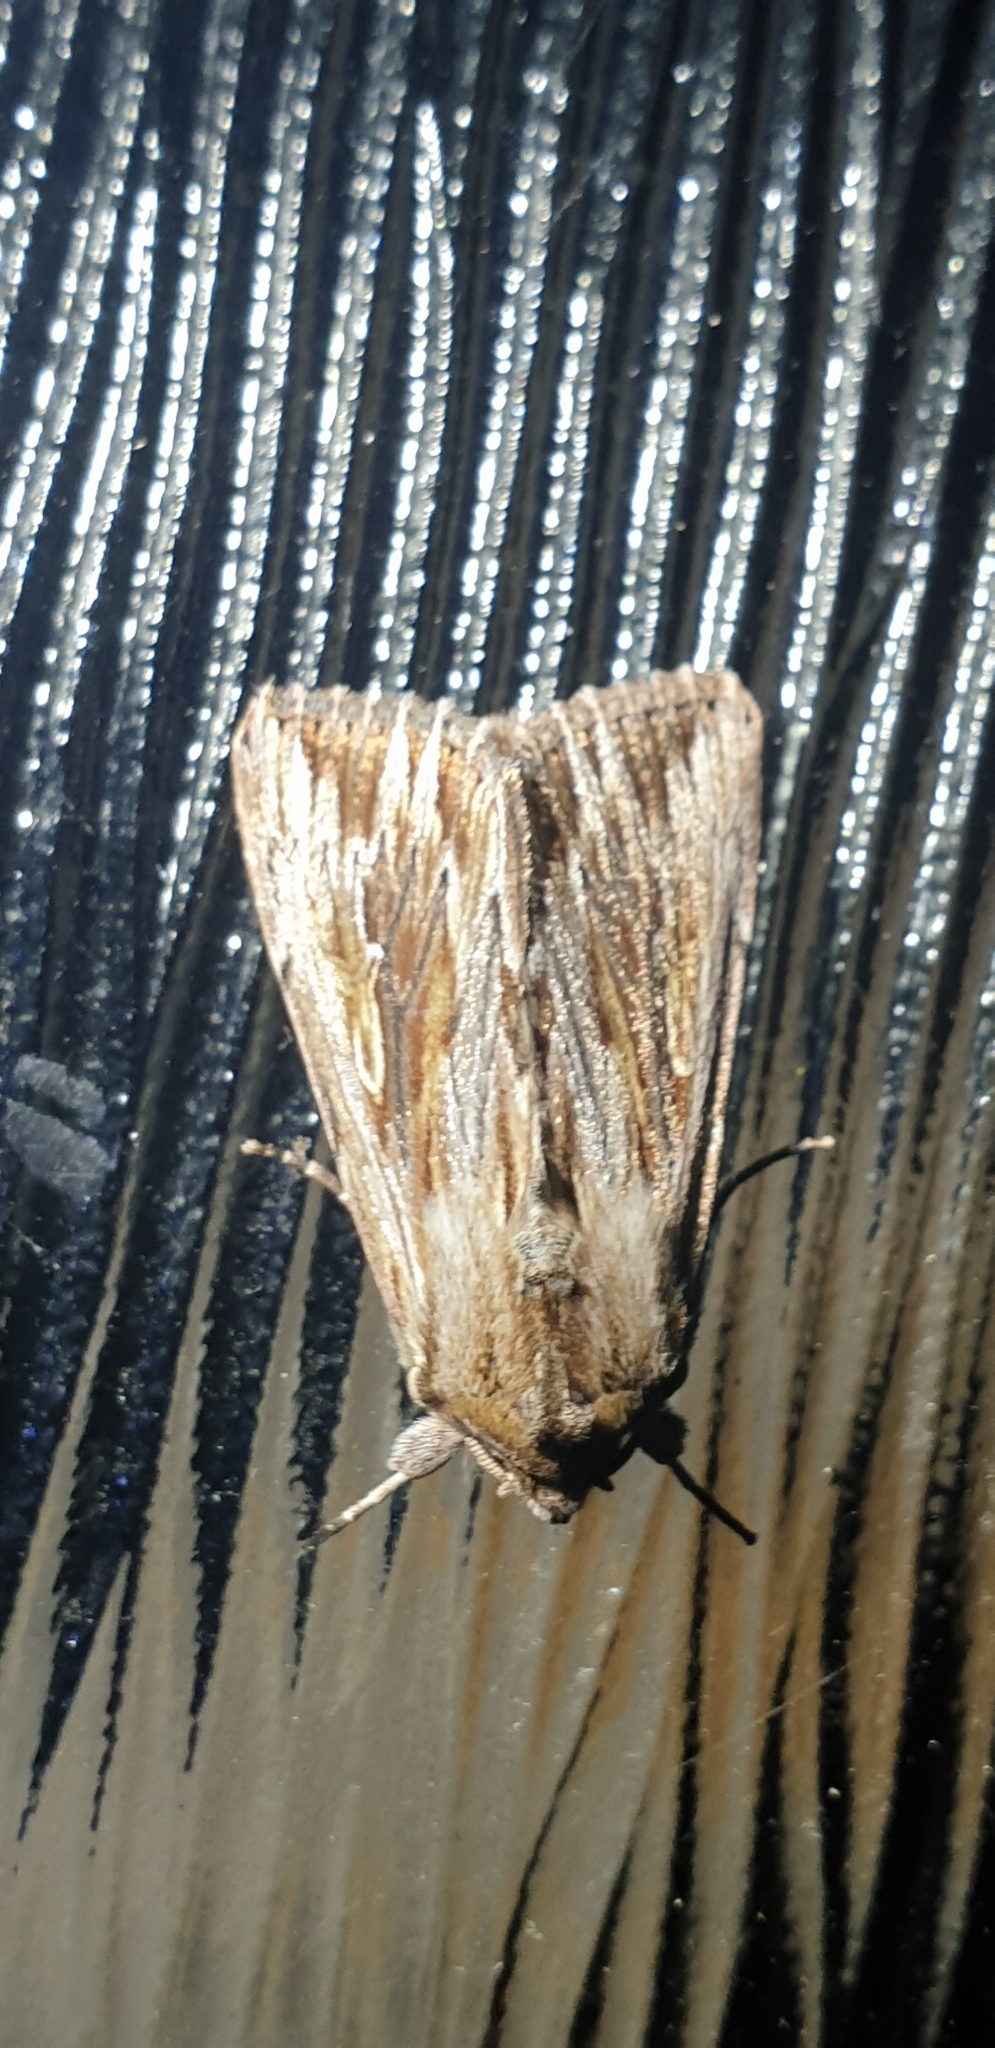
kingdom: Animalia
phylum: Arthropoda
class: Insecta
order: Lepidoptera
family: Noctuidae
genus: Persectania
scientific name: Persectania ewingii
